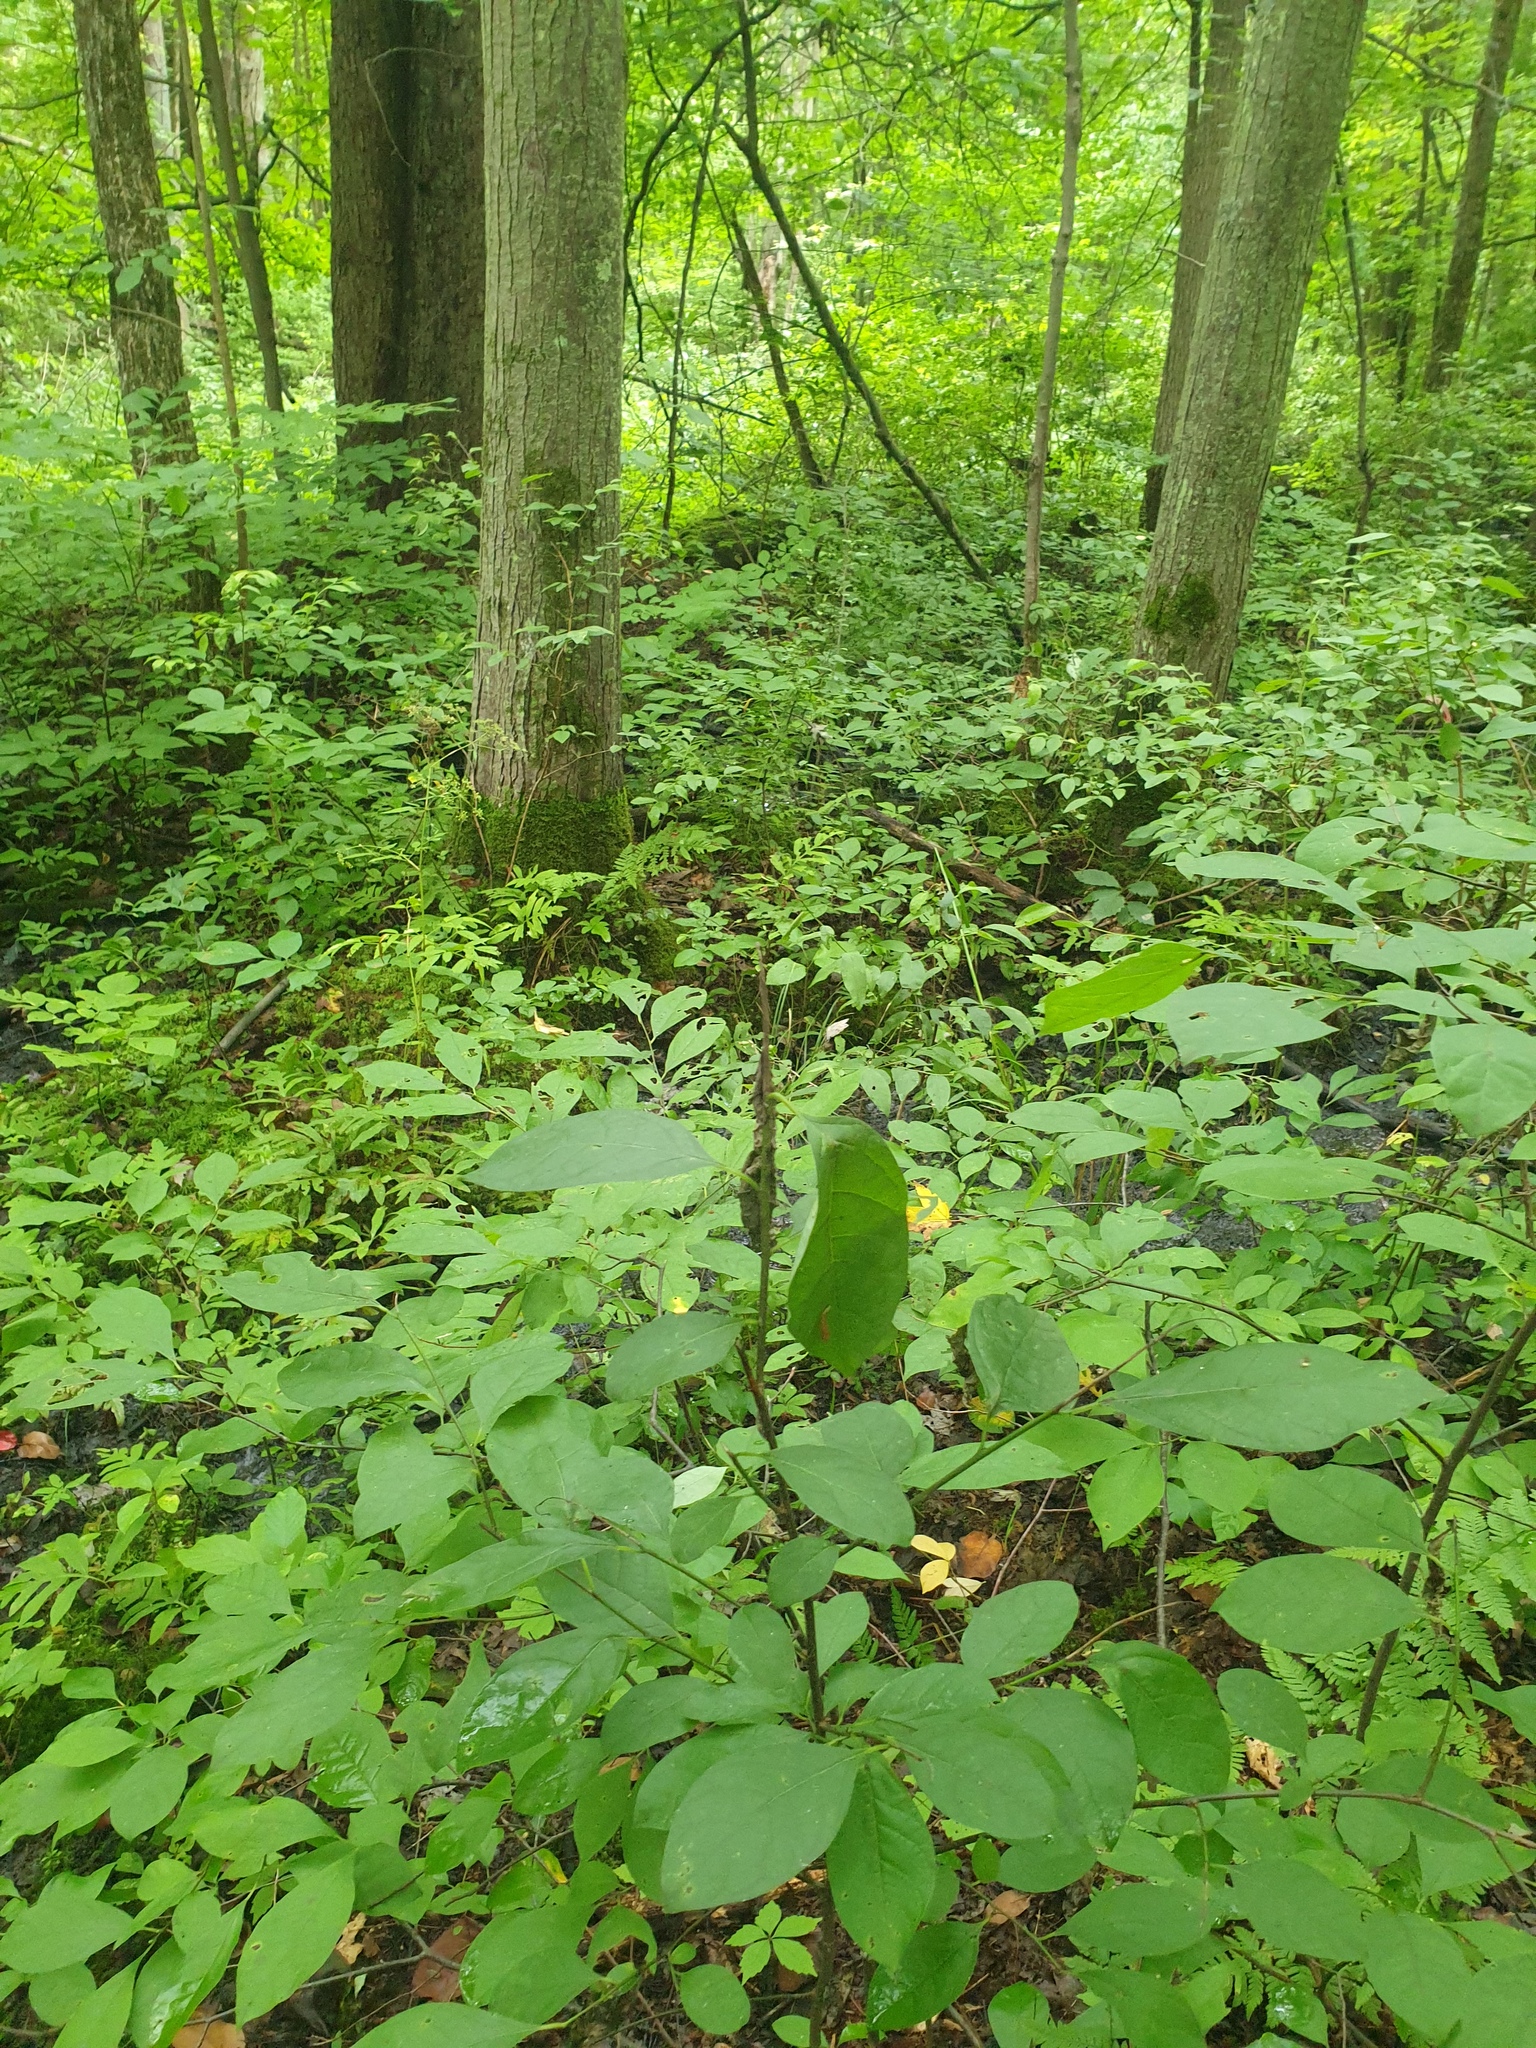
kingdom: Plantae
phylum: Tracheophyta
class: Polypodiopsida
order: Polypodiales
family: Dryopteridaceae
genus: Dryopteris
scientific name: Dryopteris carthusiana
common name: Narrow buckler-fern
